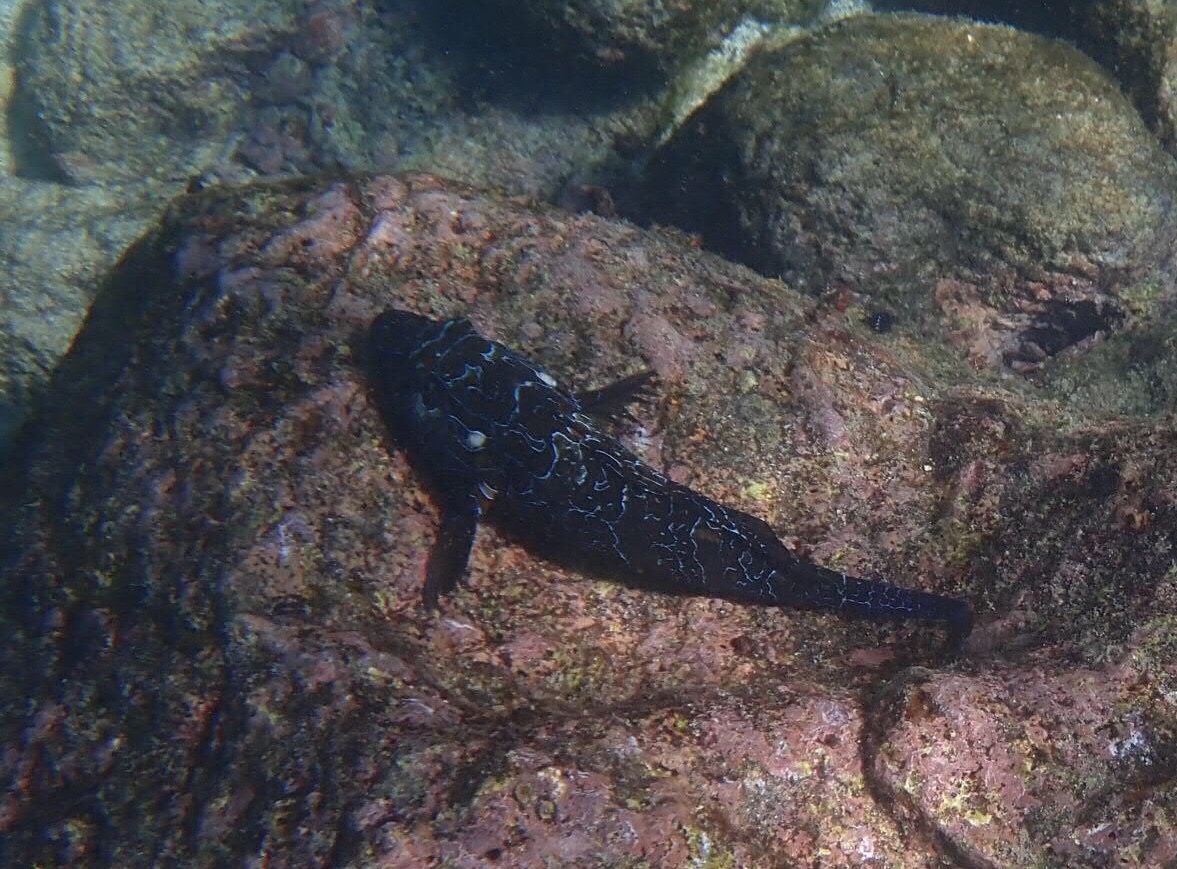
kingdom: Animalia
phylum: Chordata
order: Perciformes
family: Cirrhitidae
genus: Cirrhitus
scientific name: Cirrhitus rivulatus
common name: Giant hawkfish
